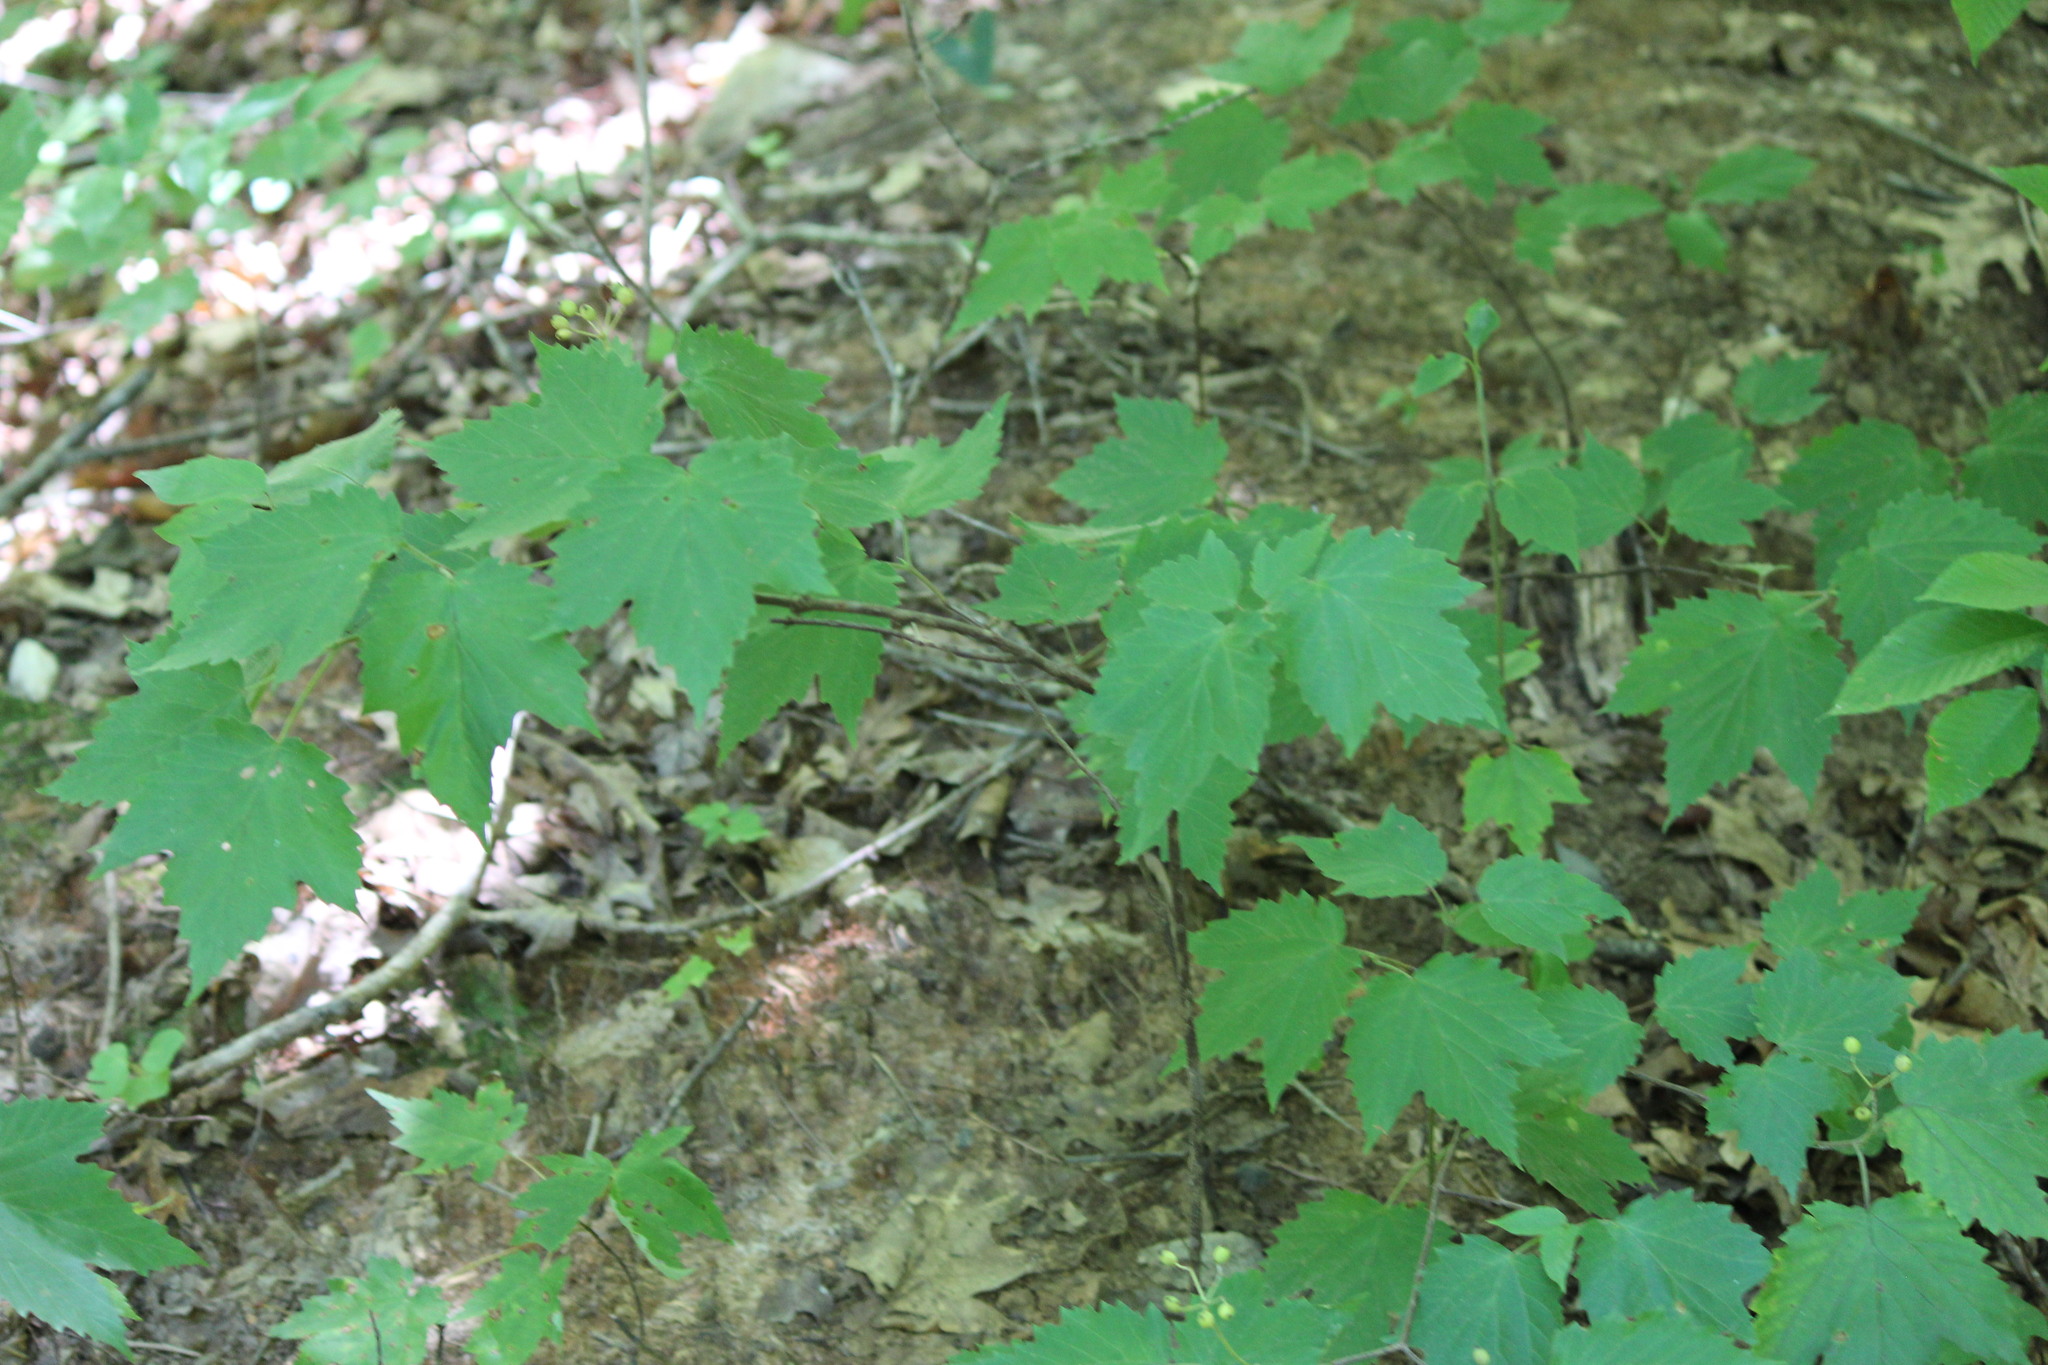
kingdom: Plantae
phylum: Tracheophyta
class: Magnoliopsida
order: Dipsacales
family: Viburnaceae
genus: Viburnum
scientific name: Viburnum acerifolium
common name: Dockmackie
